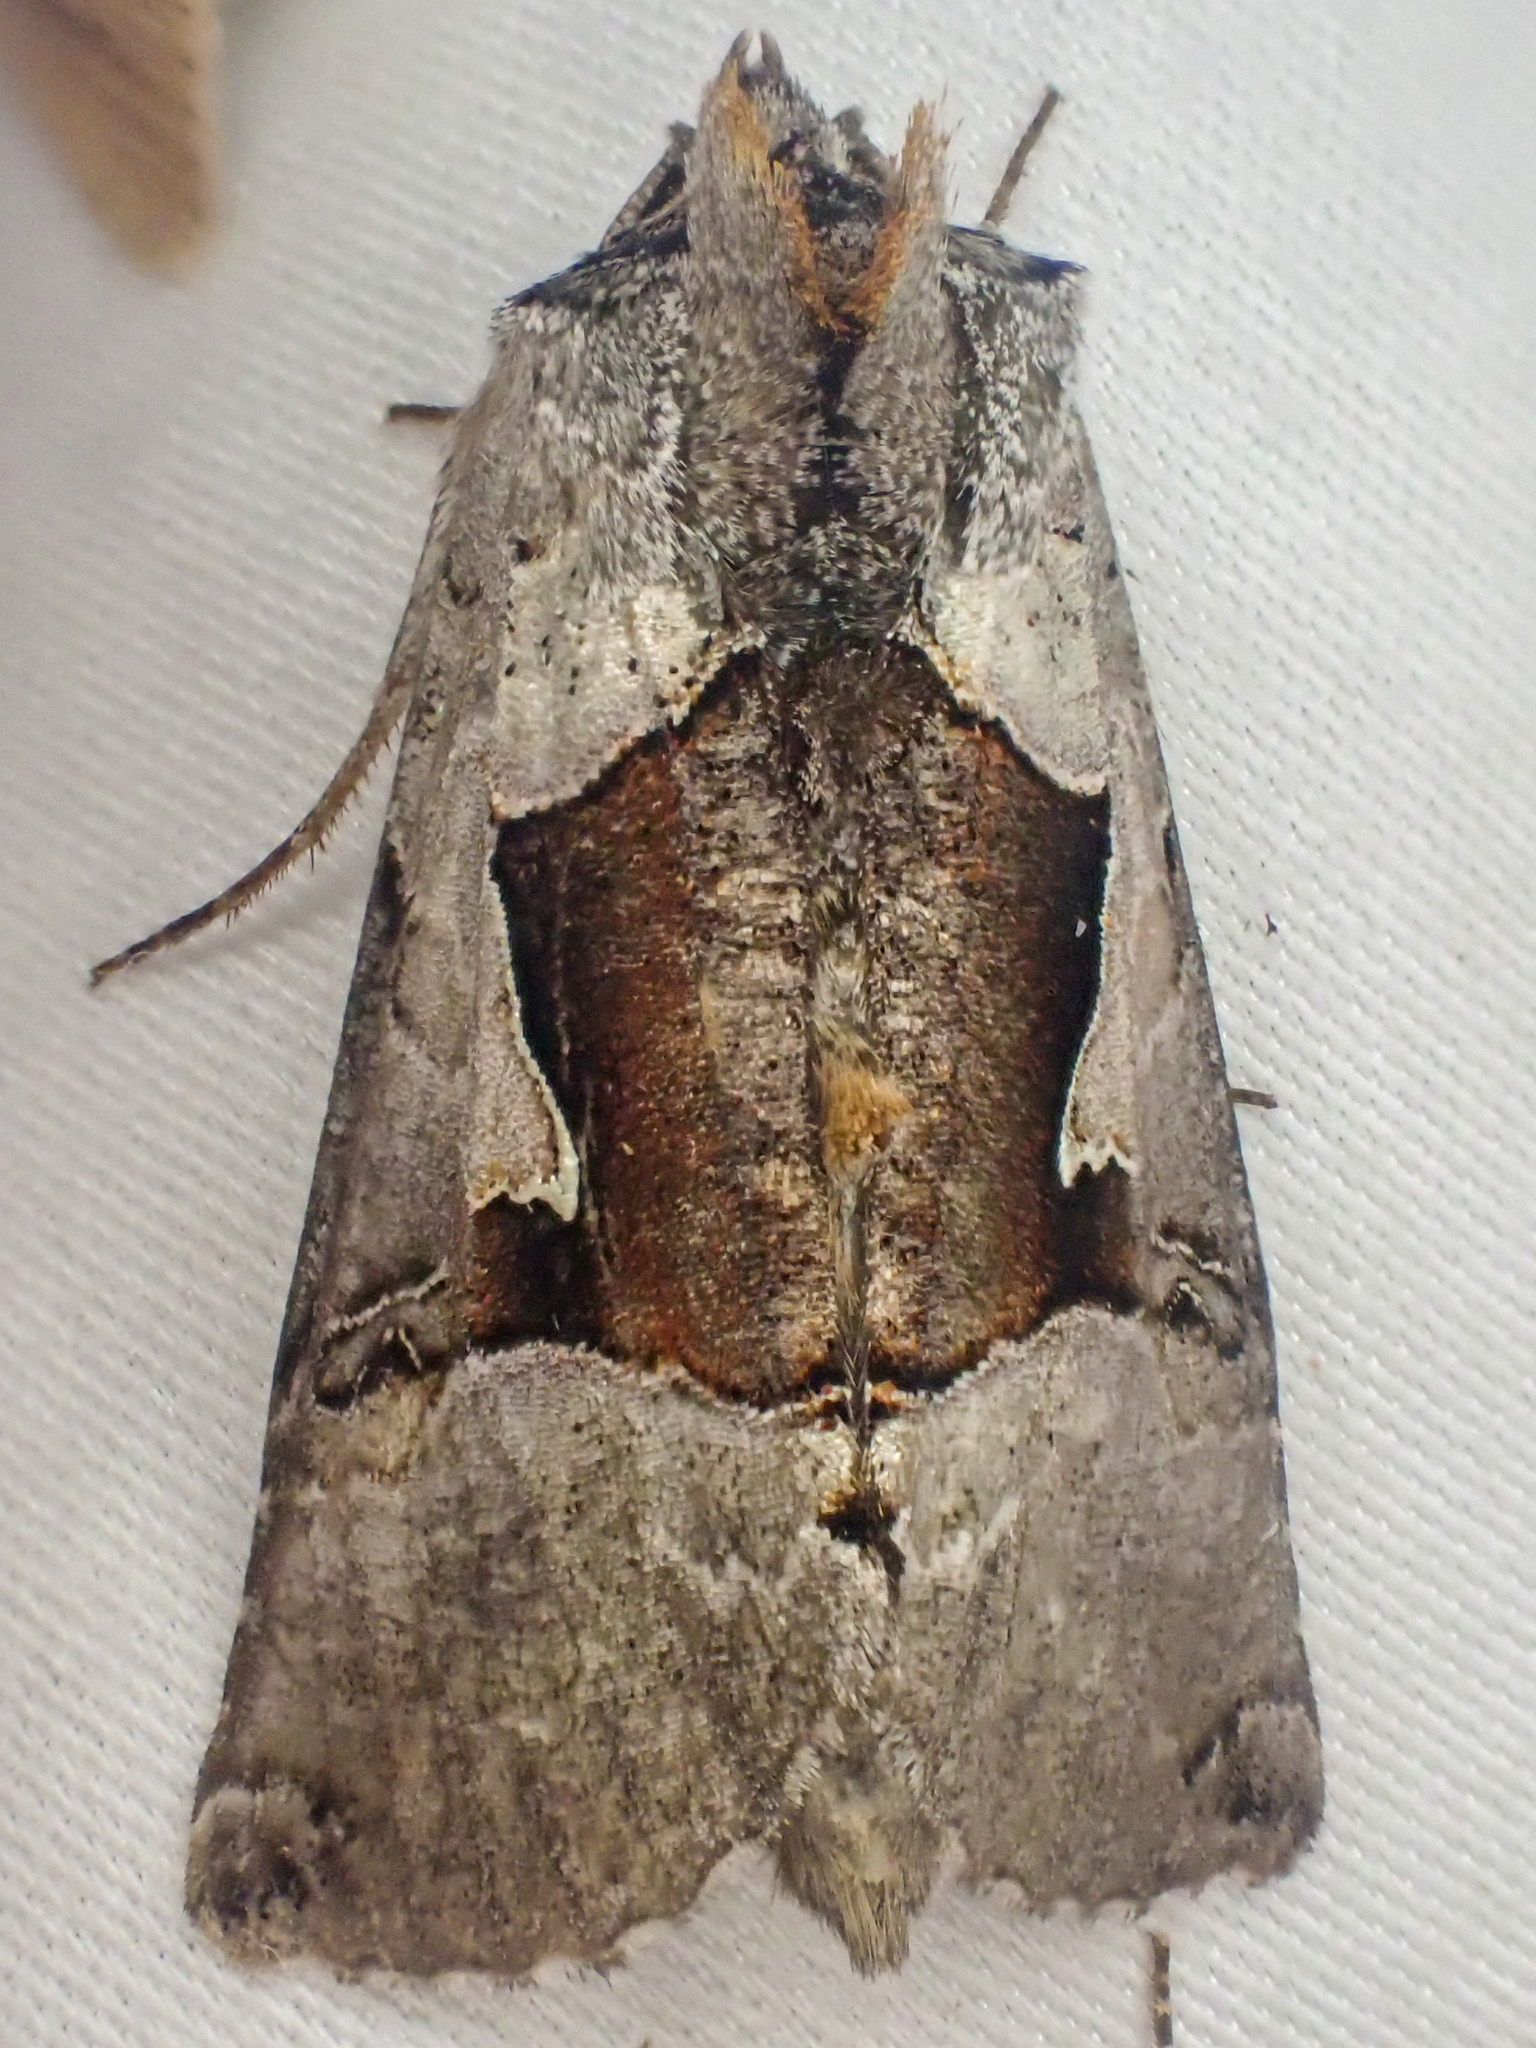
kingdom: Animalia
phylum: Arthropoda
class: Insecta
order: Lepidoptera
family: Noctuidae
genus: Autographa
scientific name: Autographa ampla
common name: Large looper moth
